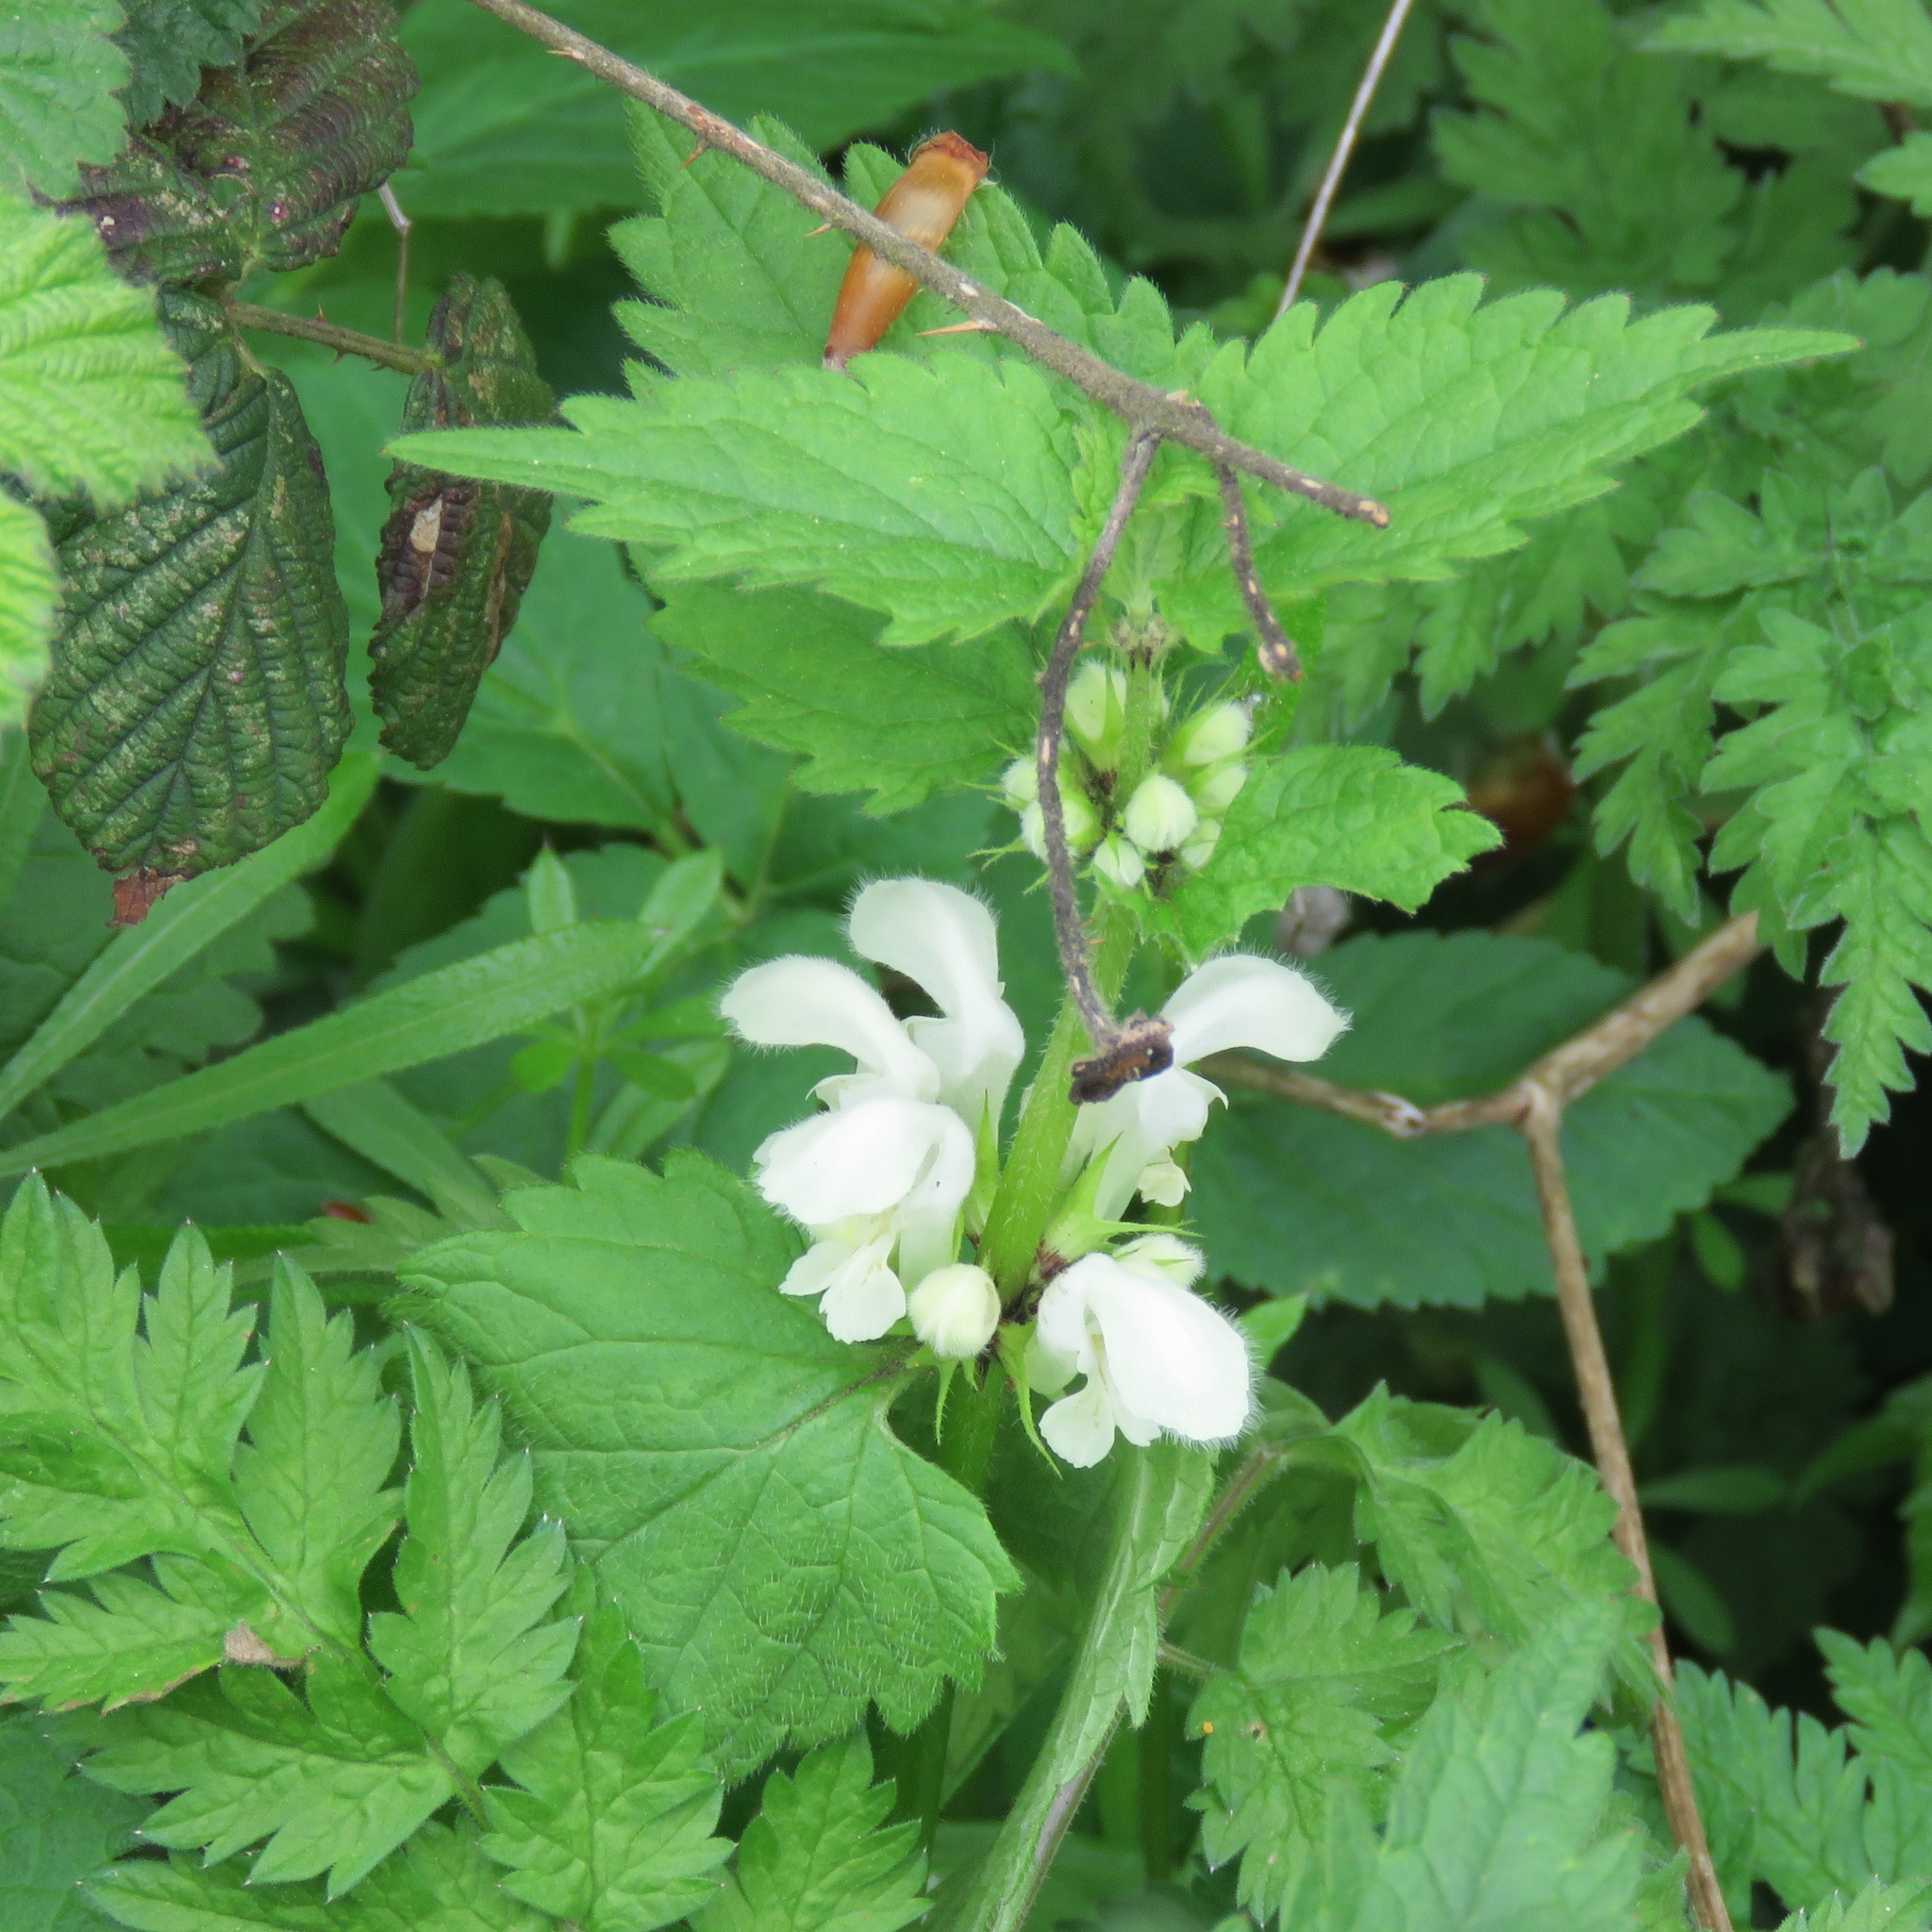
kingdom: Plantae
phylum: Tracheophyta
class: Magnoliopsida
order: Lamiales
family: Lamiaceae
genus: Lamium
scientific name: Lamium album
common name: White dead-nettle
